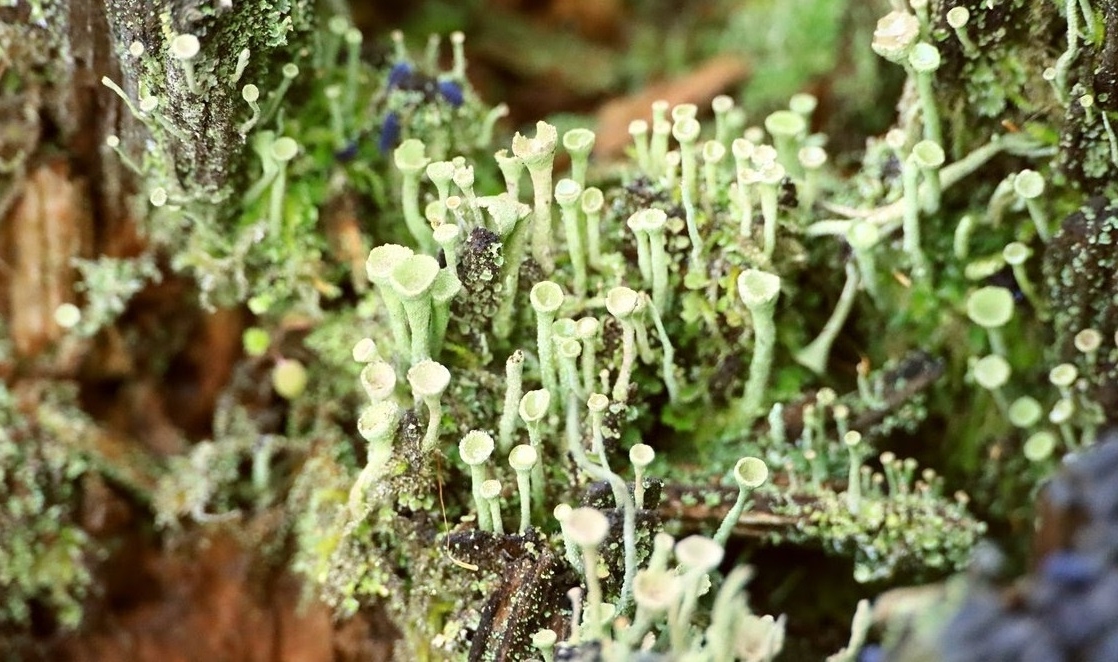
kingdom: Fungi
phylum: Ascomycota
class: Lecanoromycetes
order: Lecanorales
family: Cladoniaceae
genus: Cladonia
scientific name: Cladonia fimbriata
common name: Powdered trumpet lichen
